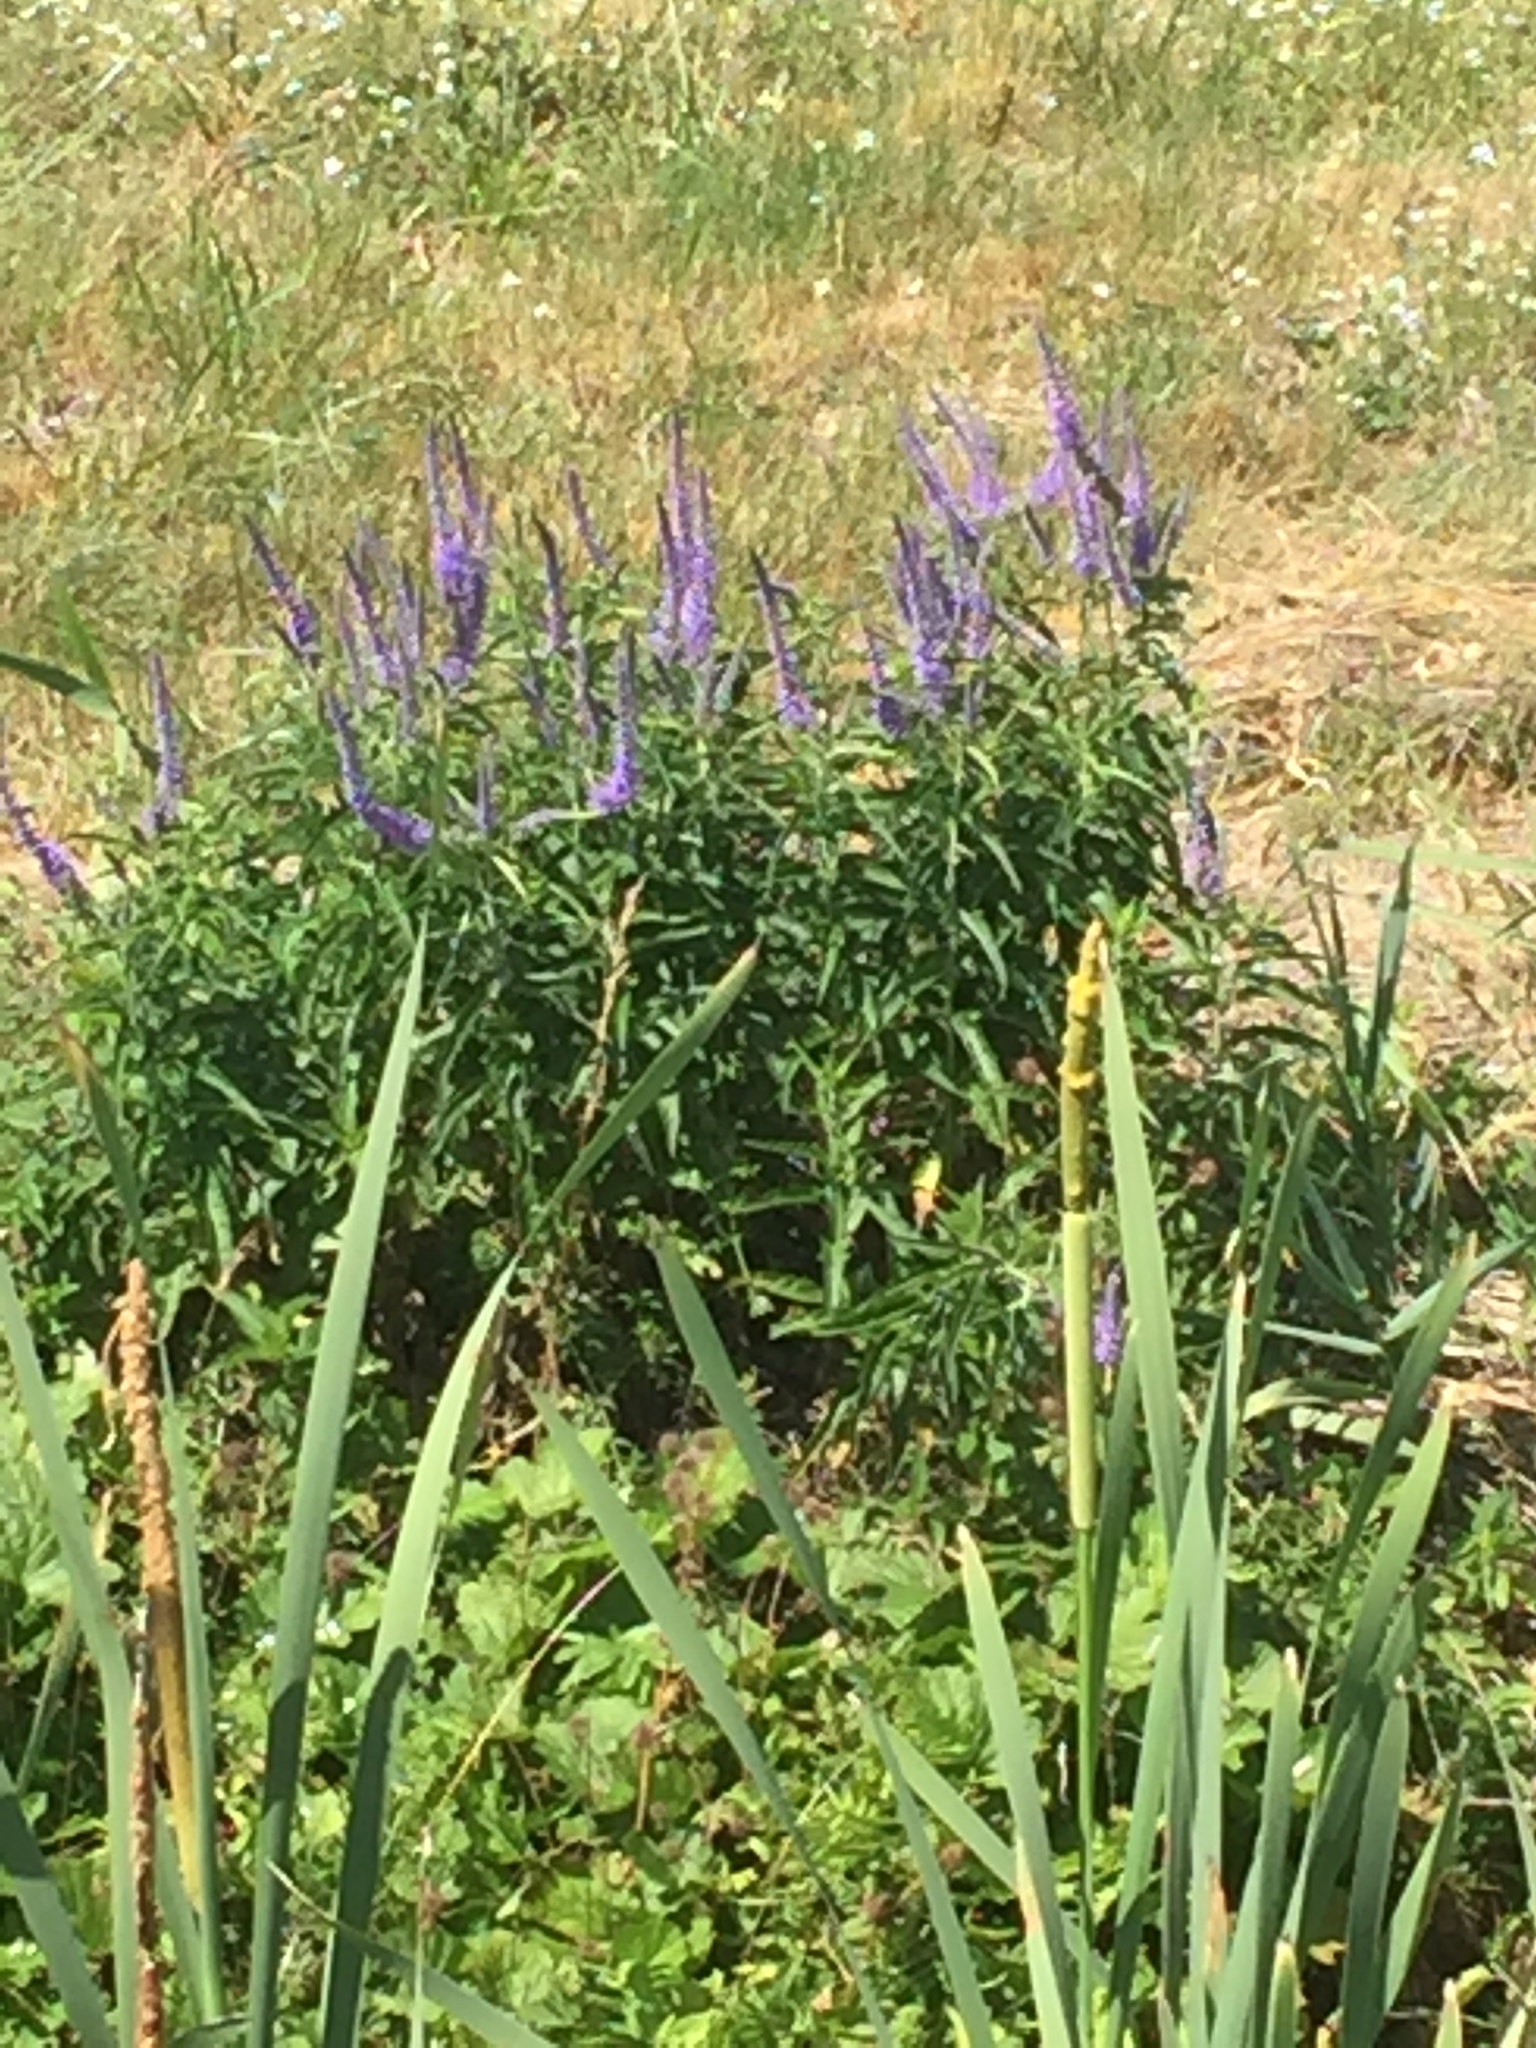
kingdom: Plantae
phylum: Tracheophyta
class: Magnoliopsida
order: Lamiales
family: Plantaginaceae
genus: Veronica
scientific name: Veronica longifolia
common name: Garden speedwell
